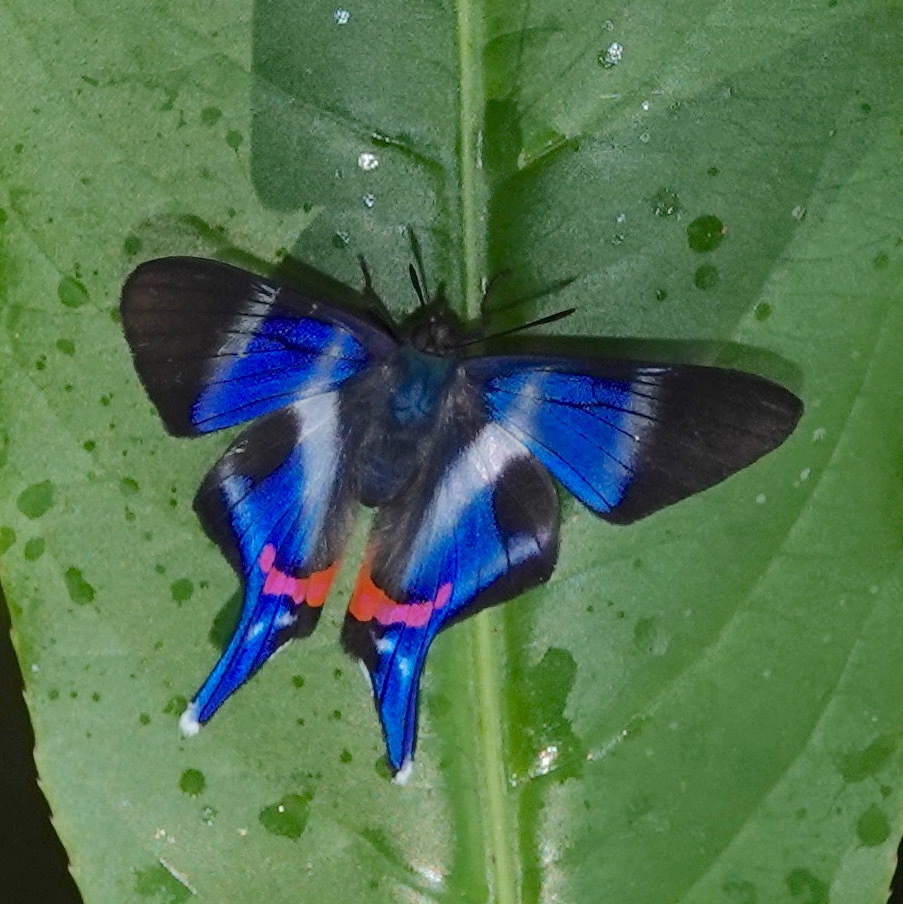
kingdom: Animalia
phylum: Arthropoda
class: Insecta
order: Lepidoptera
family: Riodinidae
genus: Rhetus
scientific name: Rhetus dysonii
